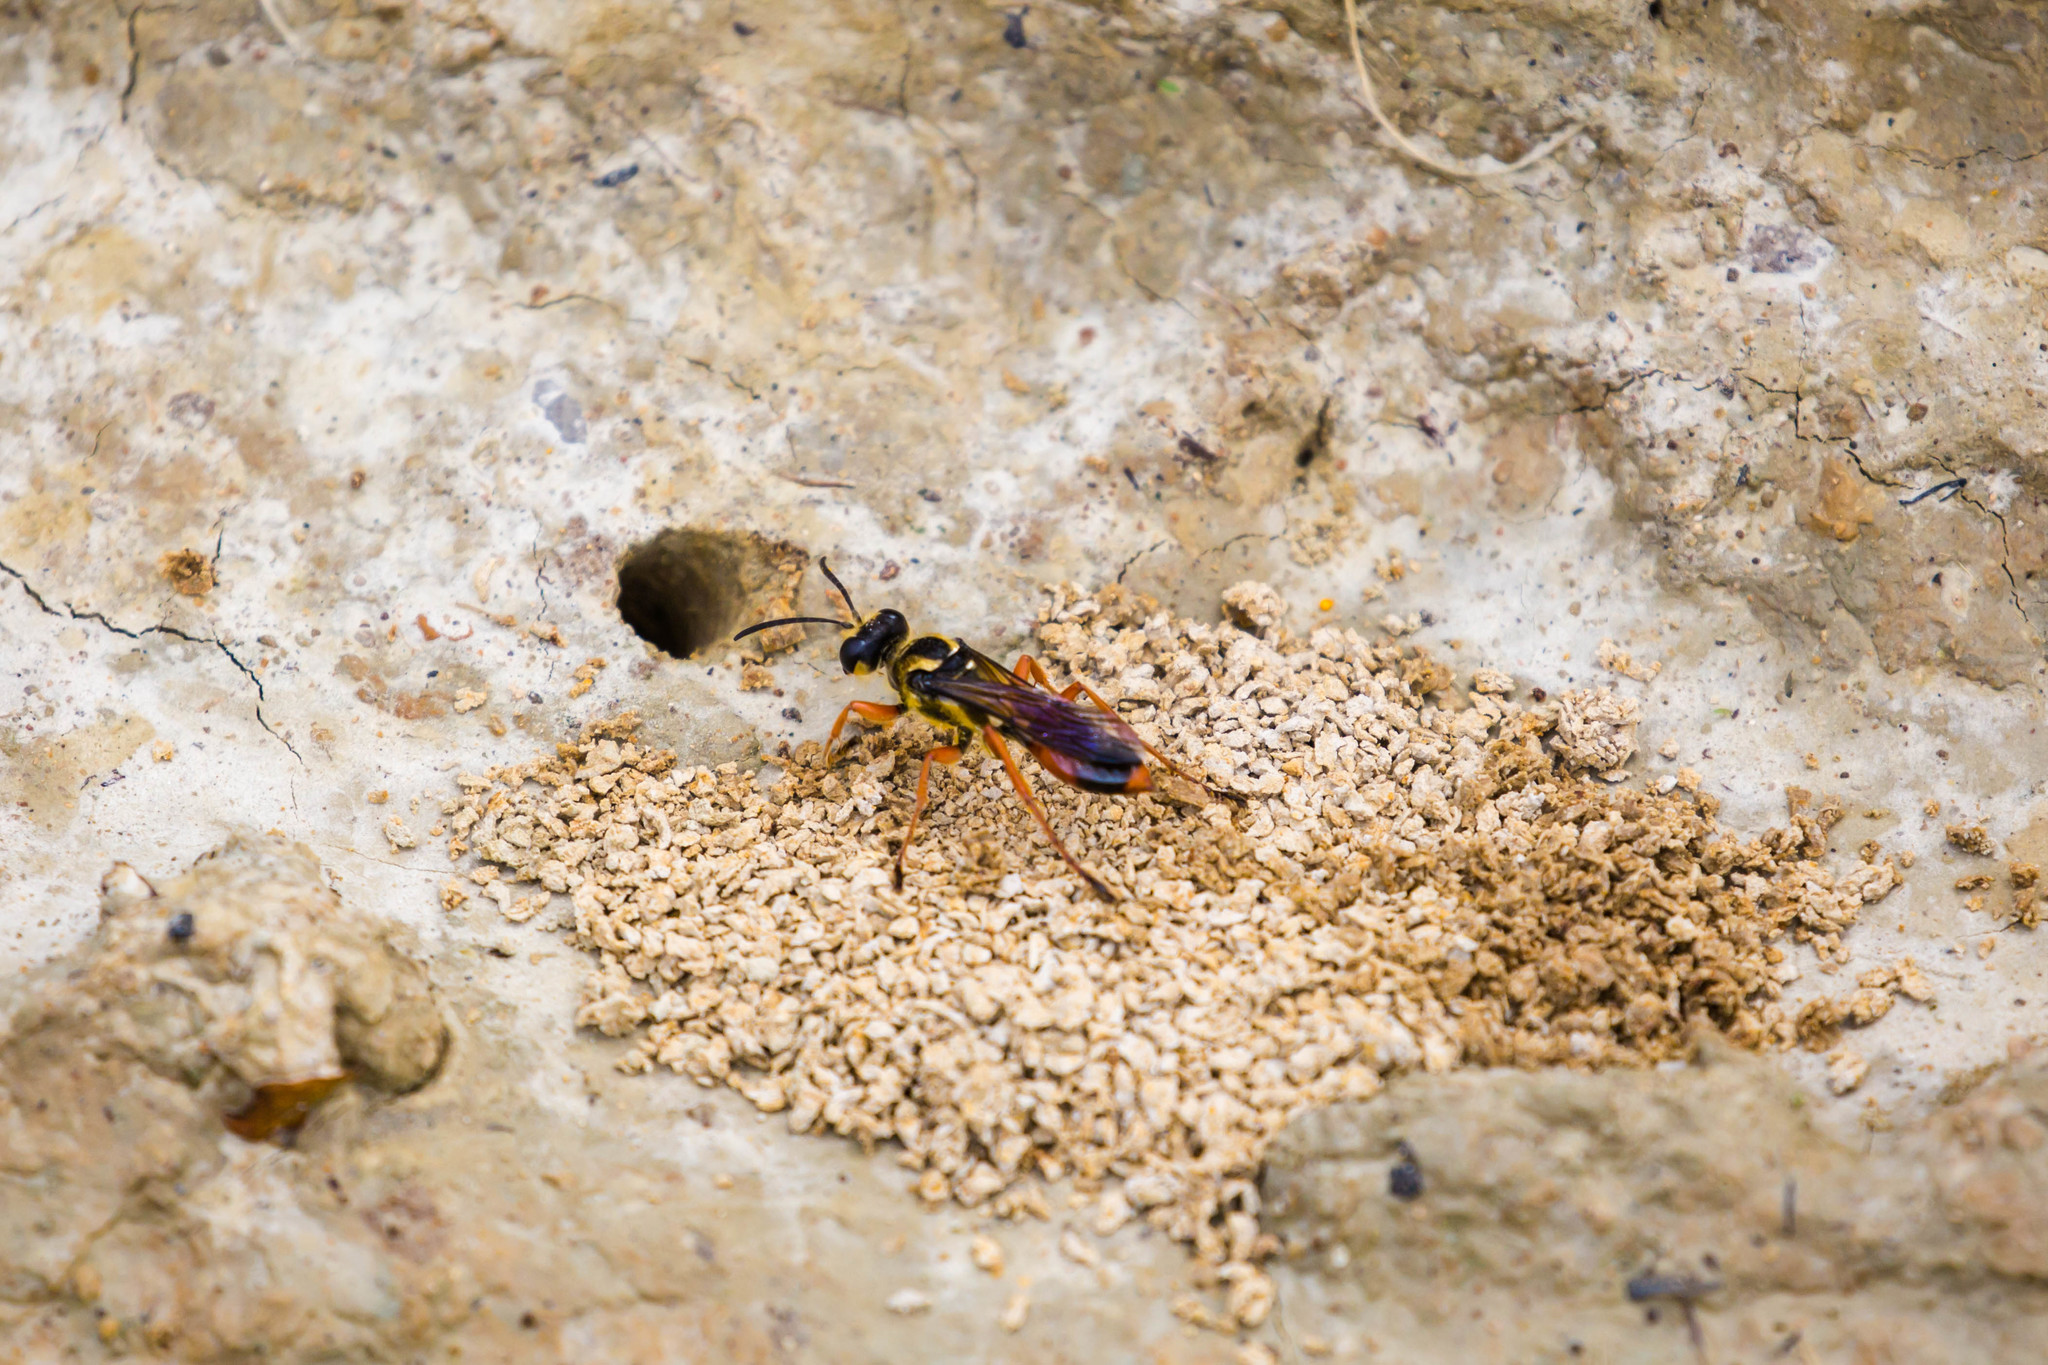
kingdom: Animalia
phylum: Arthropoda
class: Insecta
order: Hymenoptera
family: Sphecidae
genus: Sphex
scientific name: Sphex dorsalis
